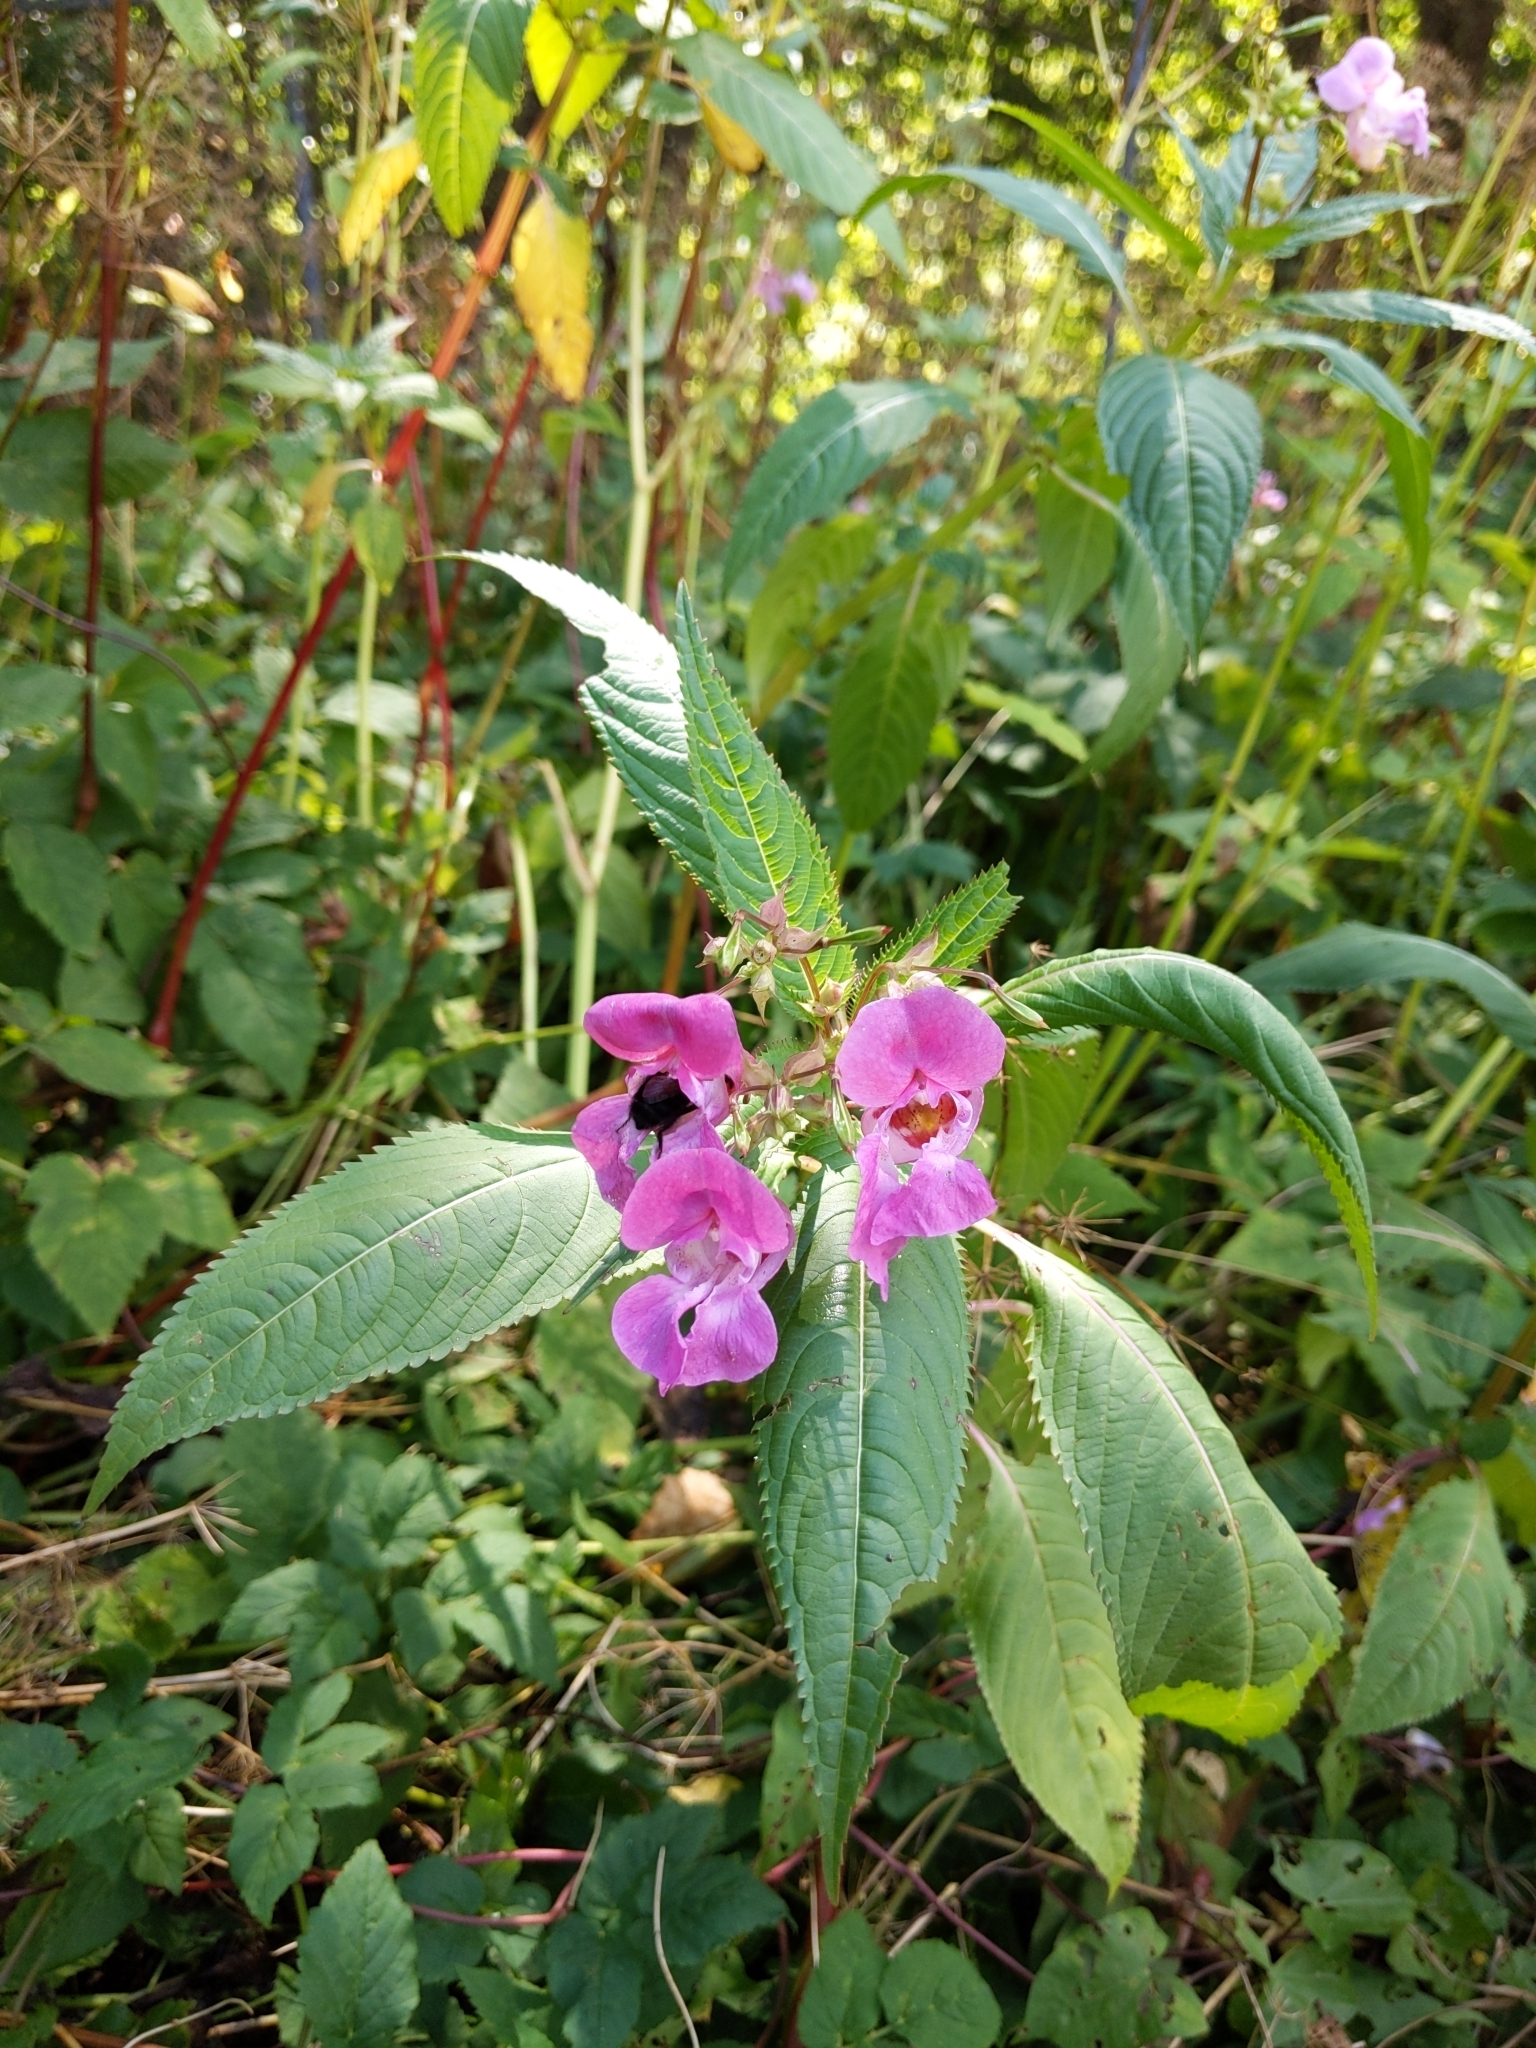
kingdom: Plantae
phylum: Tracheophyta
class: Magnoliopsida
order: Ericales
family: Balsaminaceae
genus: Impatiens
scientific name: Impatiens glandulifera
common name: Himalayan balsam
